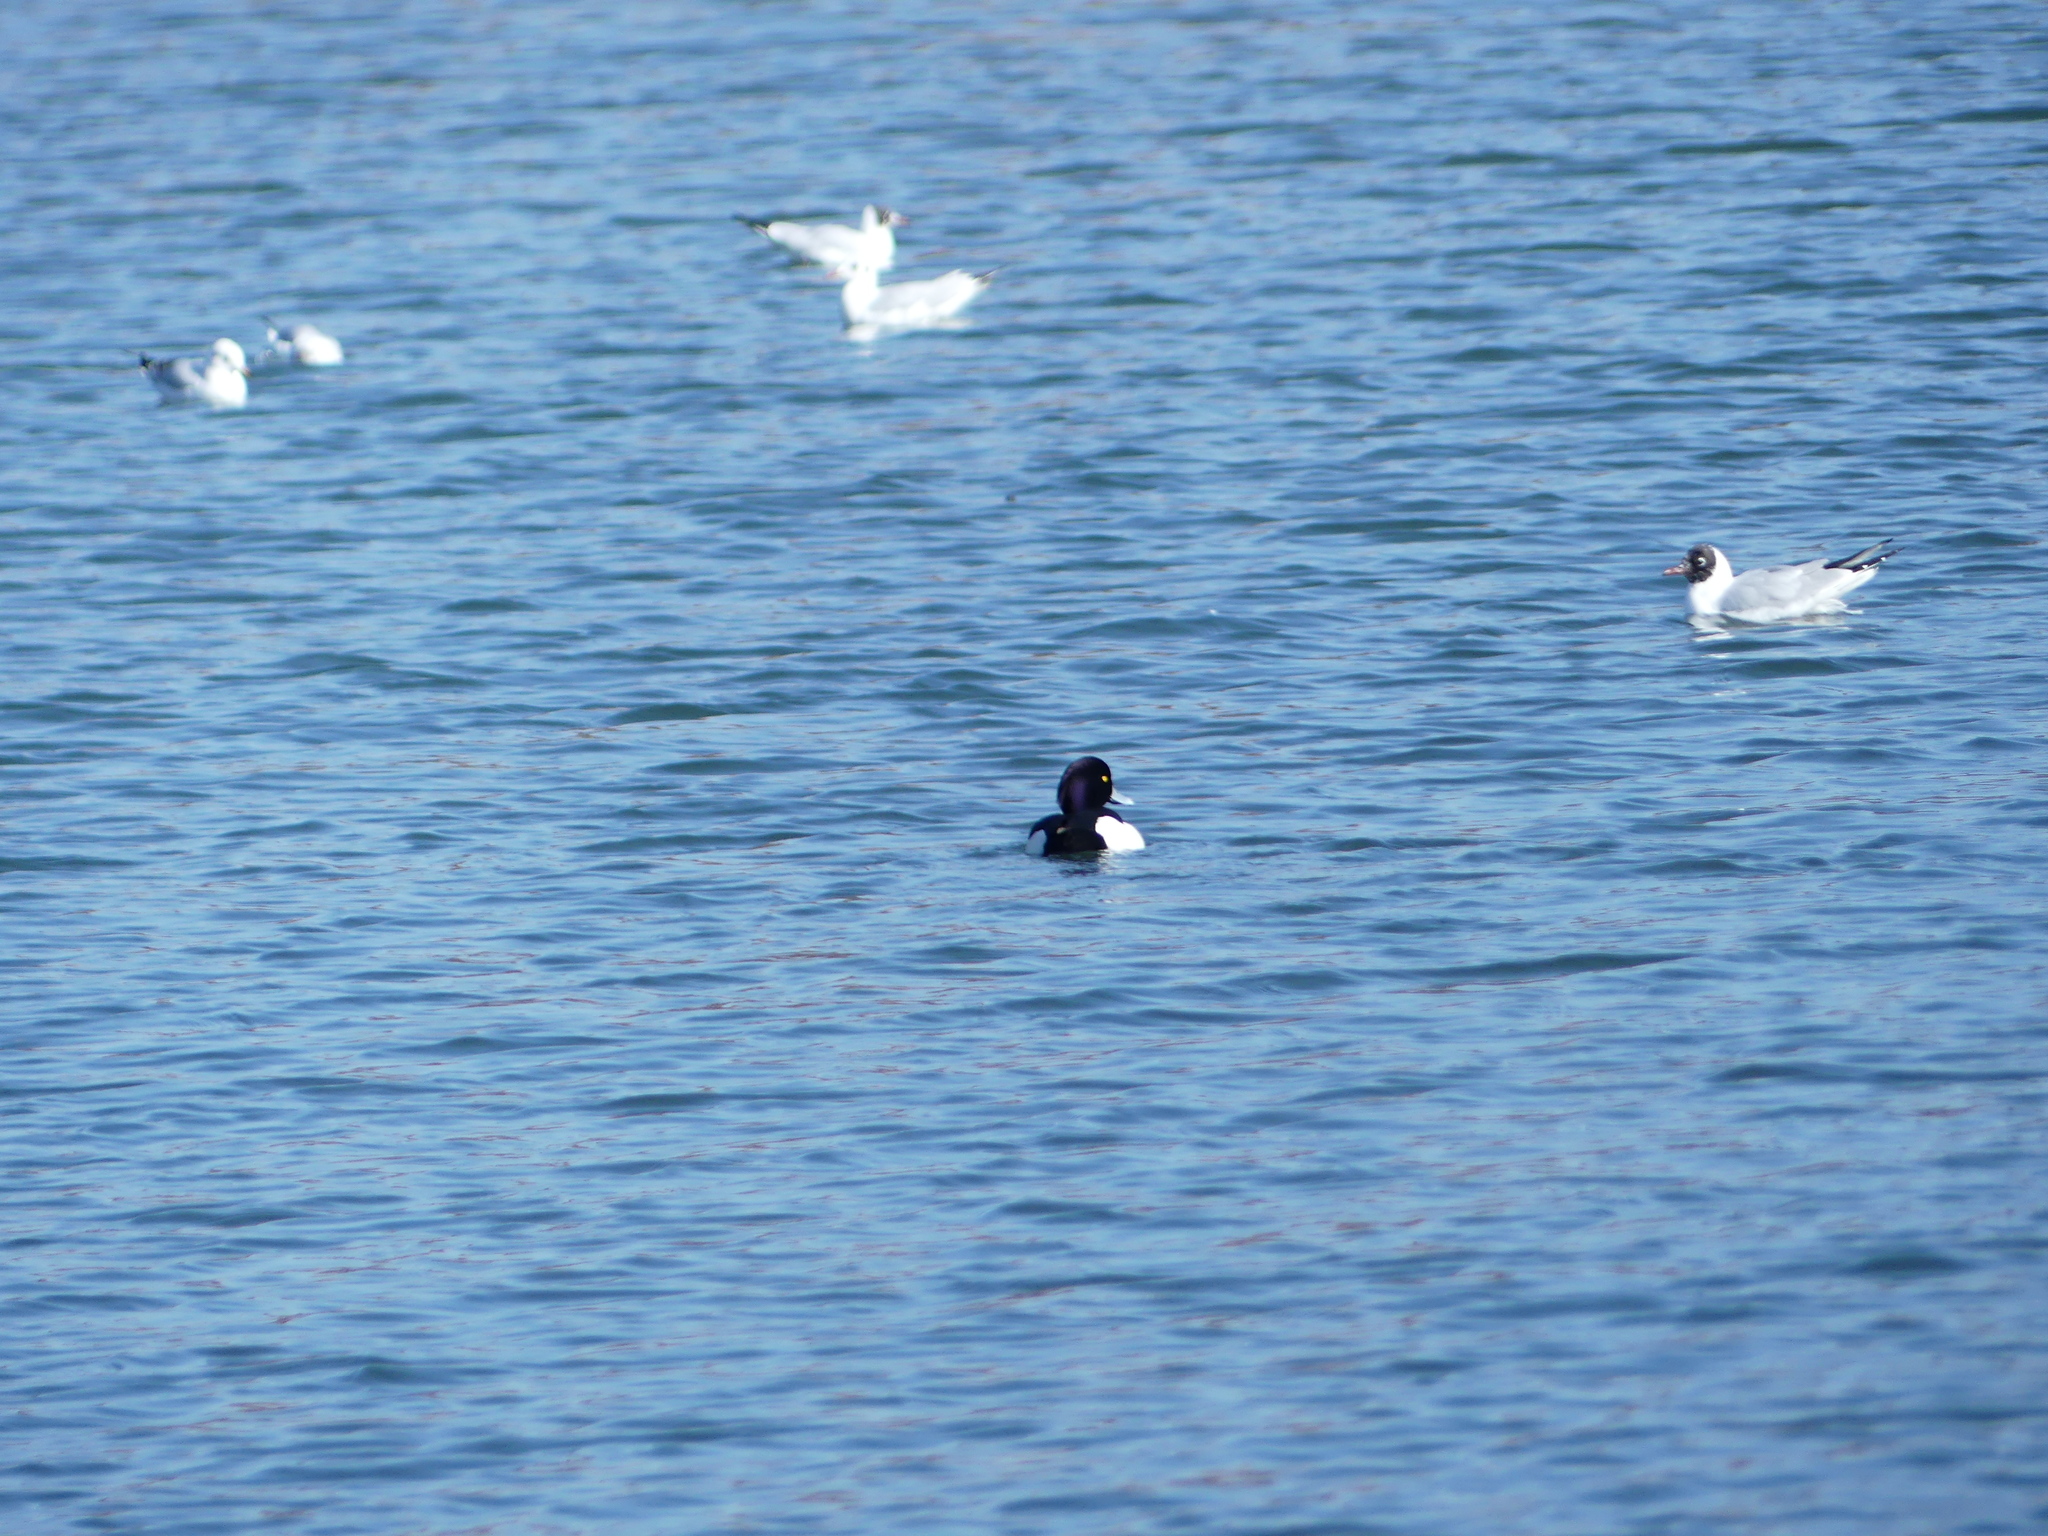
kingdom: Animalia
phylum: Chordata
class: Aves
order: Anseriformes
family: Anatidae
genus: Aythya
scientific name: Aythya fuligula
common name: Tufted duck
